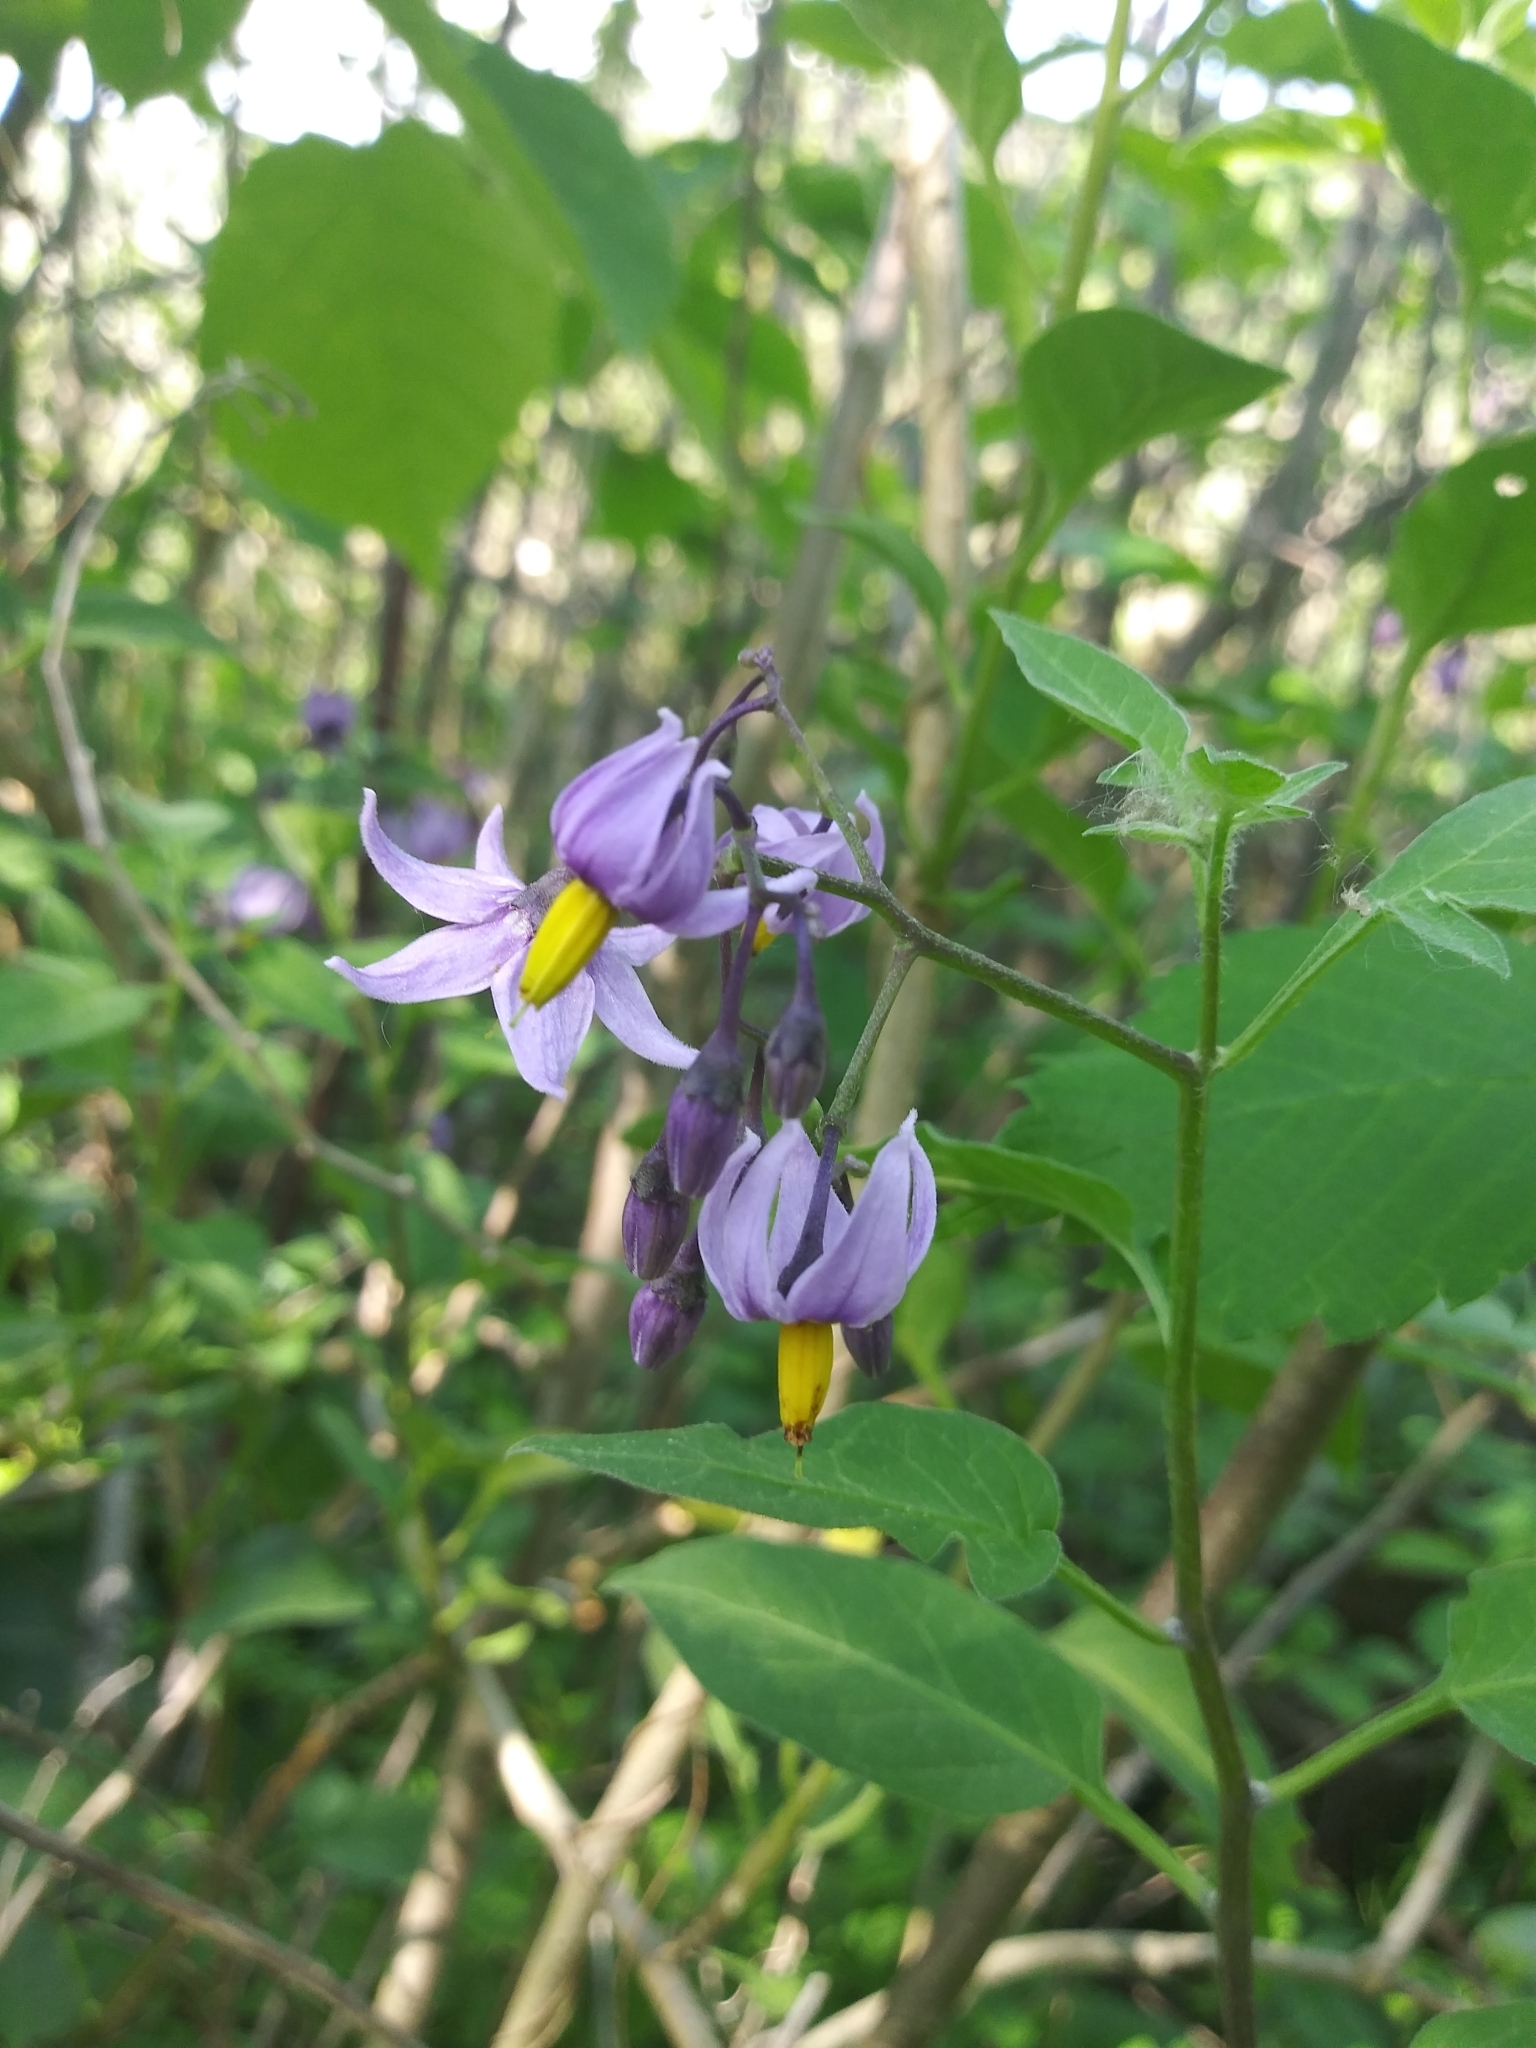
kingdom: Plantae
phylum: Tracheophyta
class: Magnoliopsida
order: Solanales
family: Solanaceae
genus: Solanum
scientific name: Solanum dulcamara
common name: Climbing nightshade
